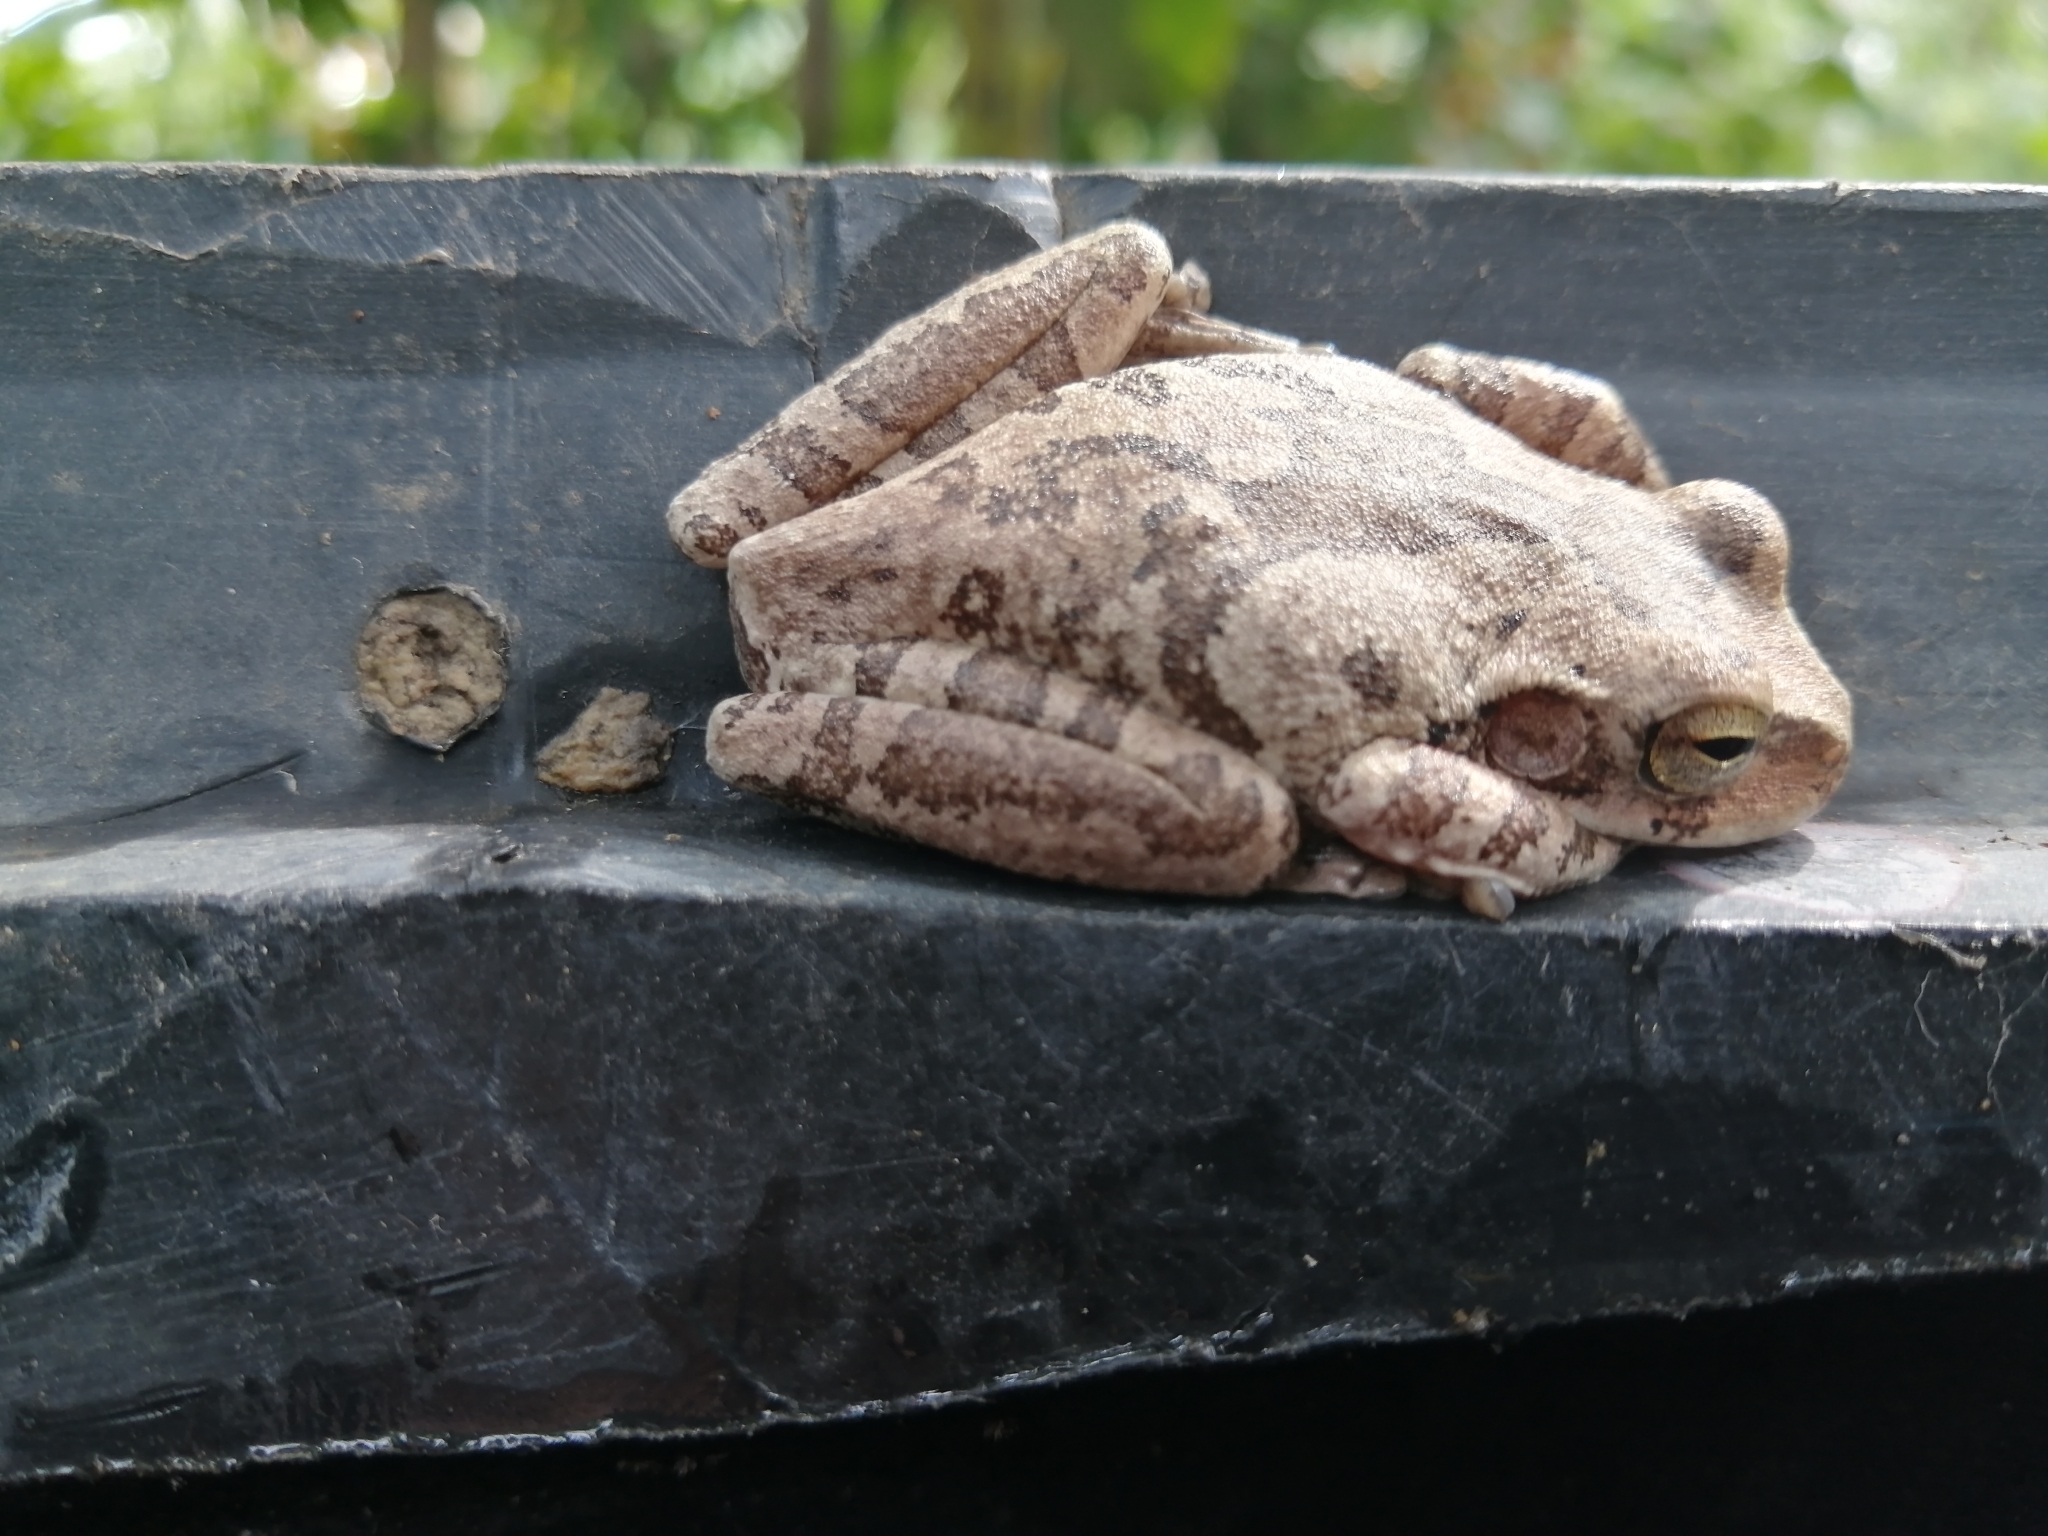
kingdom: Animalia
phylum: Chordata
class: Amphibia
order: Anura
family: Hylidae
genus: Smilisca
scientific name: Smilisca baudinii
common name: Mexican smilisca
